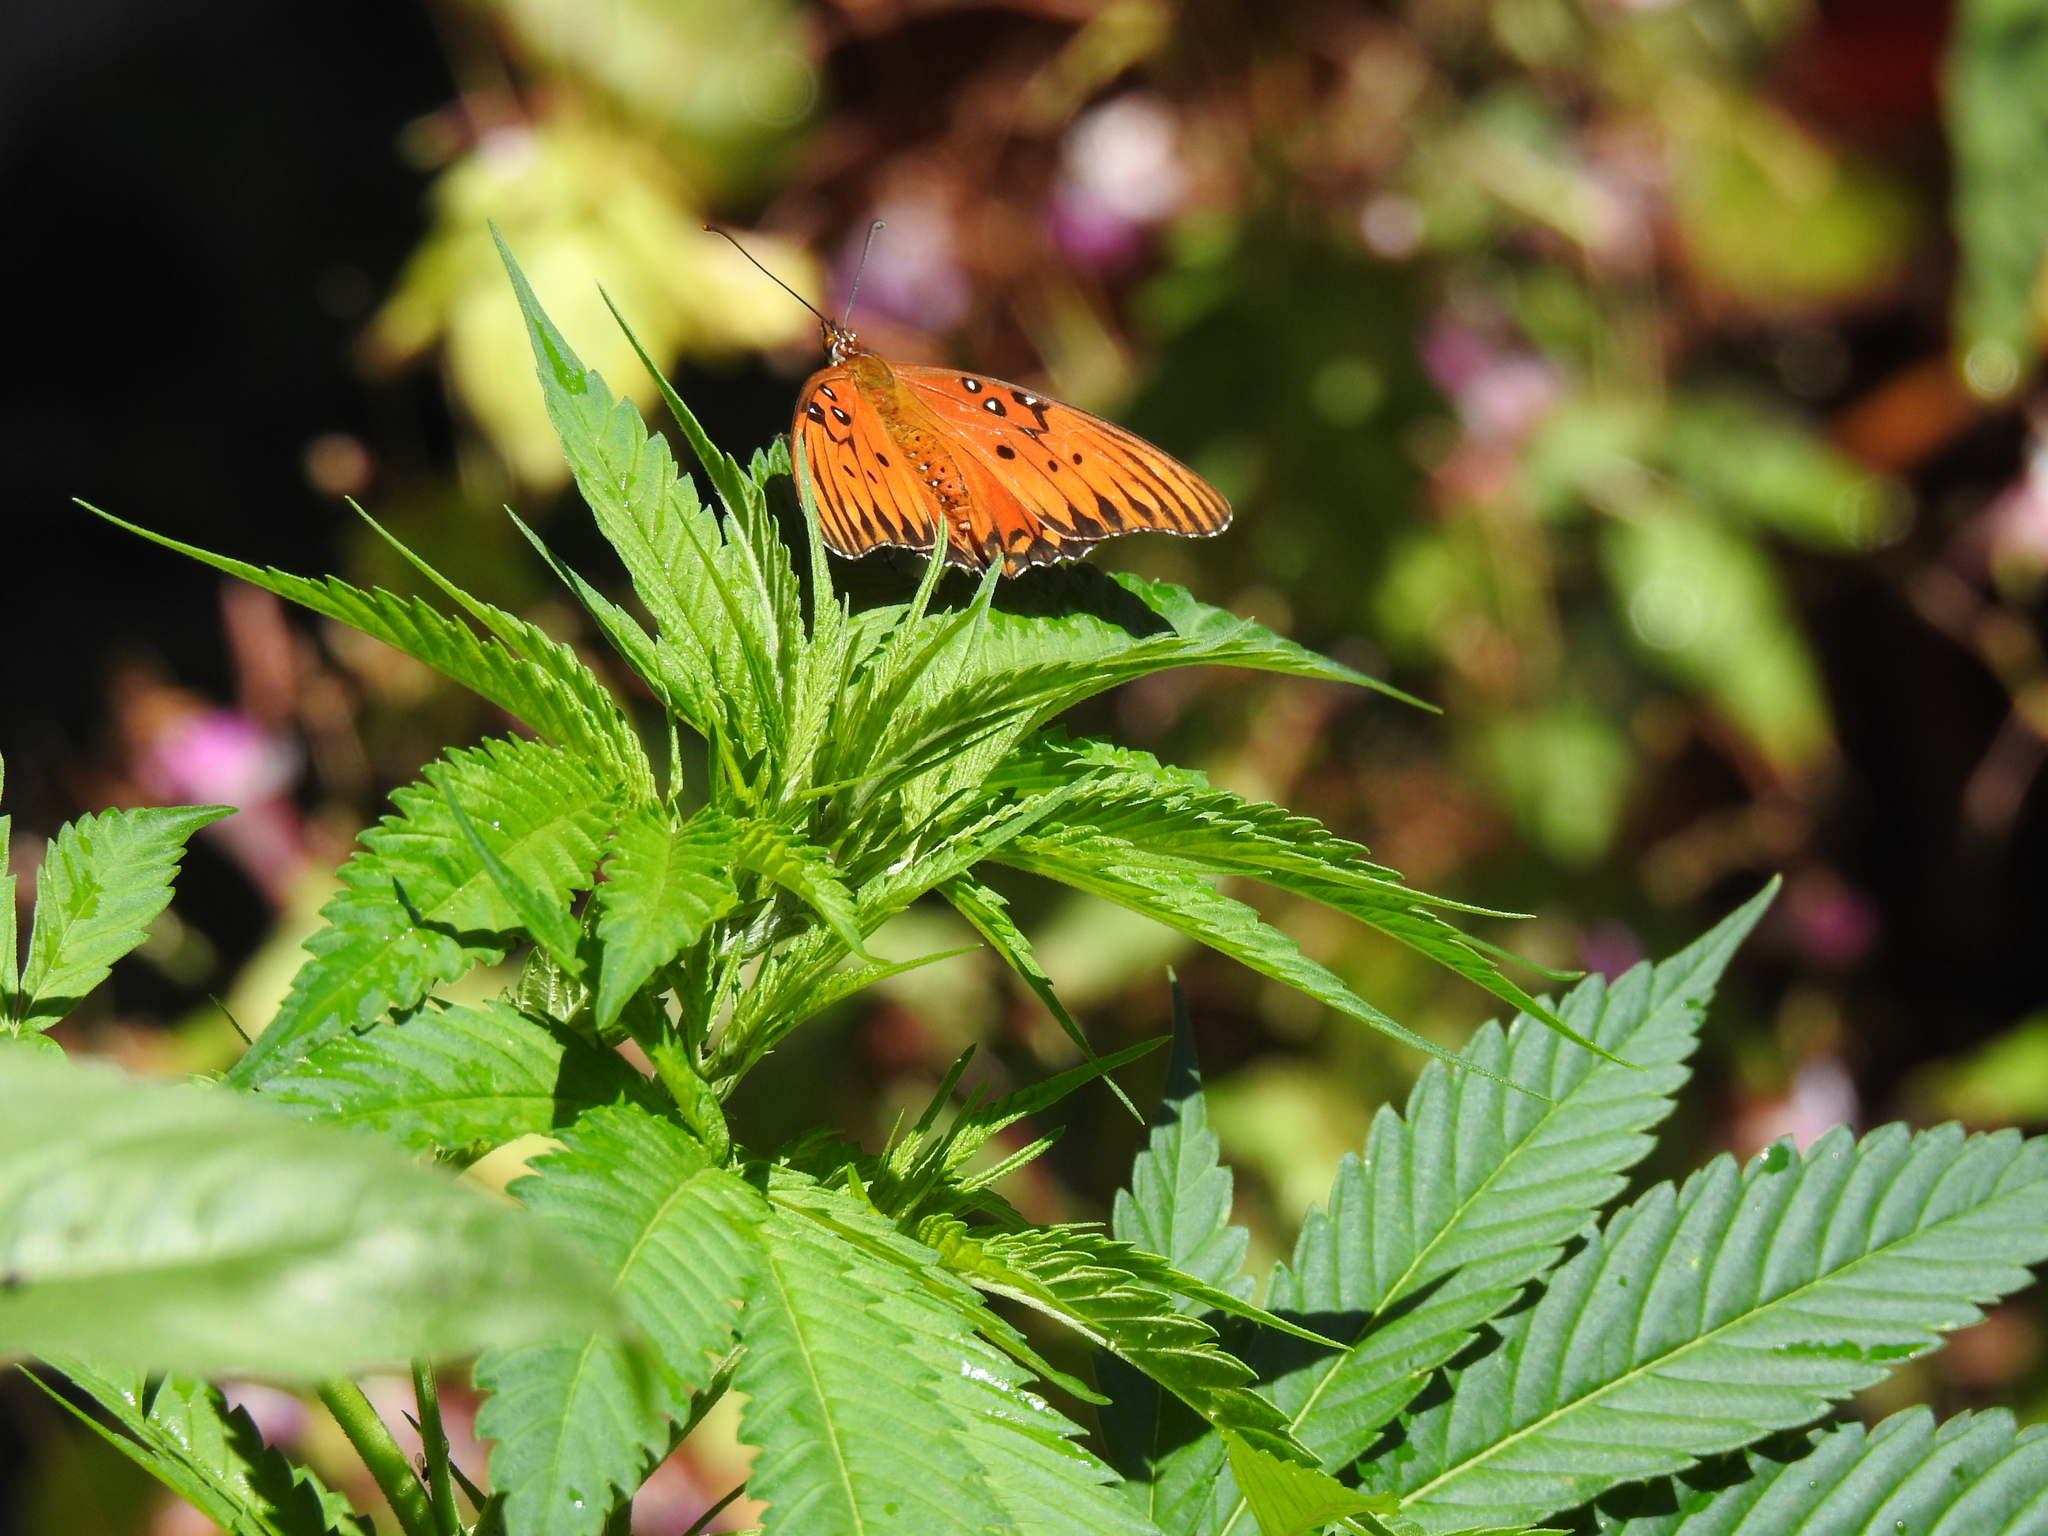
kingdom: Animalia
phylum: Arthropoda
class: Insecta
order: Lepidoptera
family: Nymphalidae
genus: Dione
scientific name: Dione vanillae
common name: Gulf fritillary
